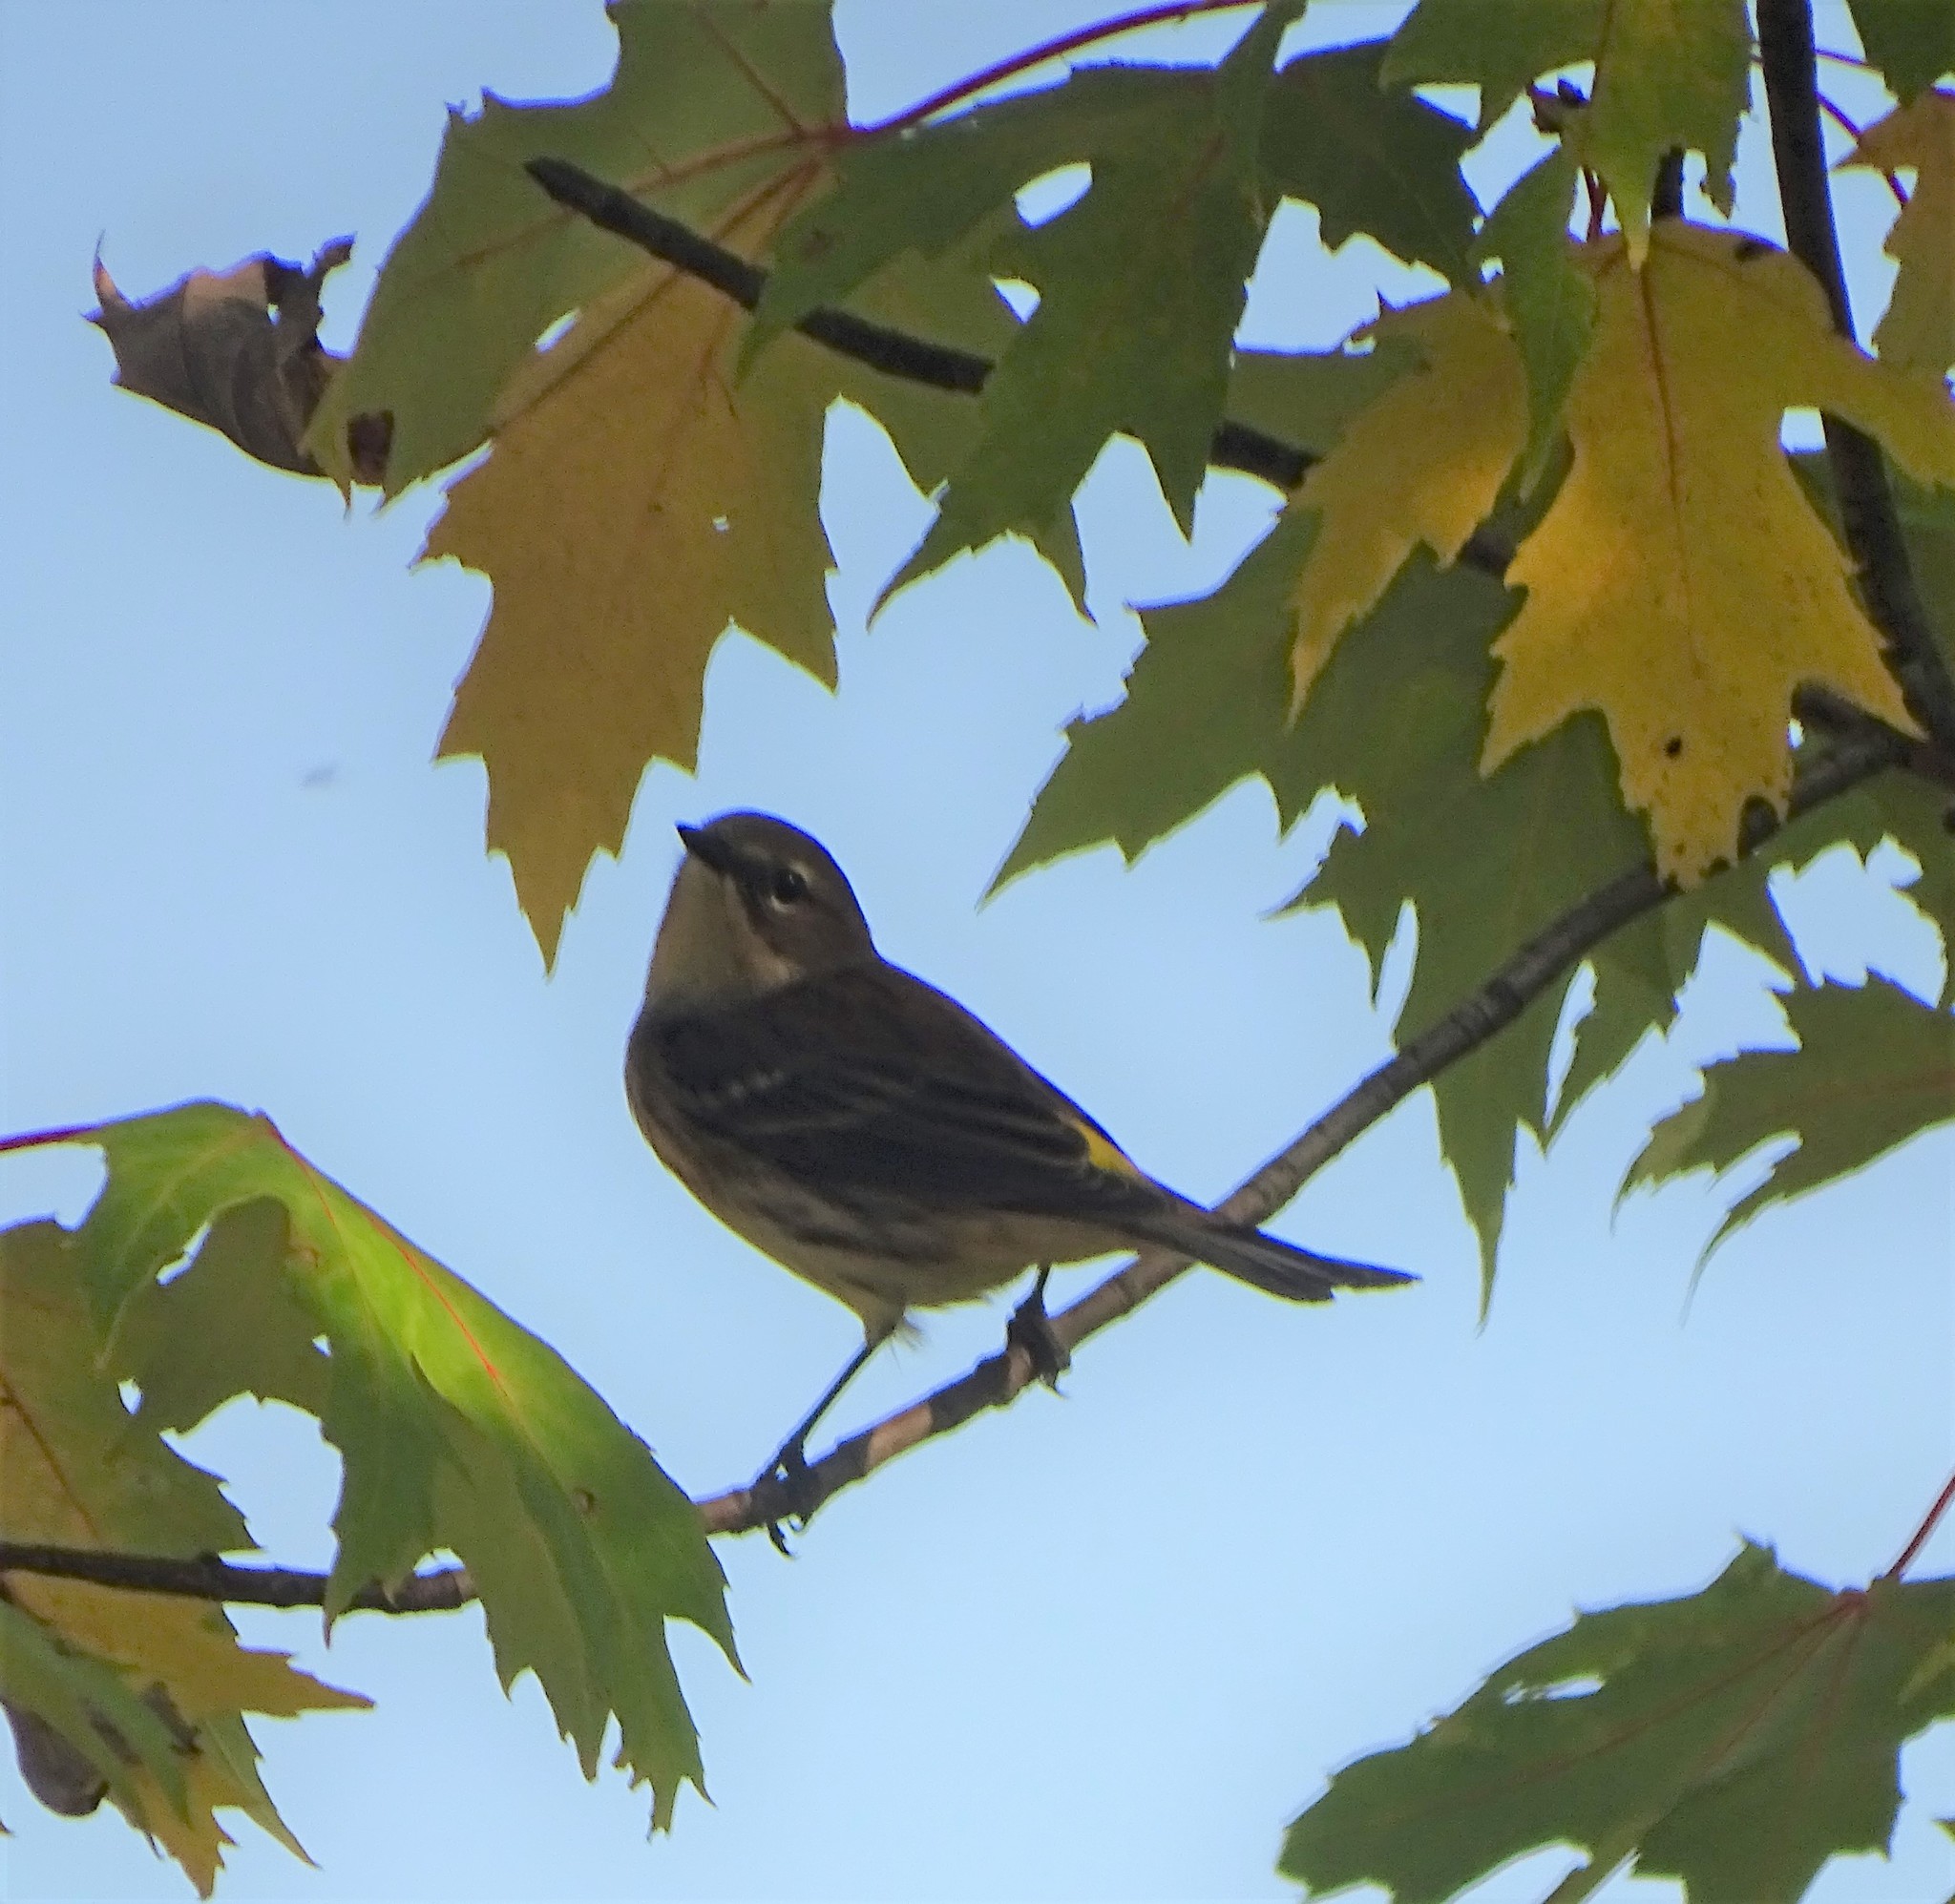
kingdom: Animalia
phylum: Chordata
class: Aves
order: Passeriformes
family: Parulidae
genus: Setophaga
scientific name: Setophaga coronata
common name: Myrtle warbler
